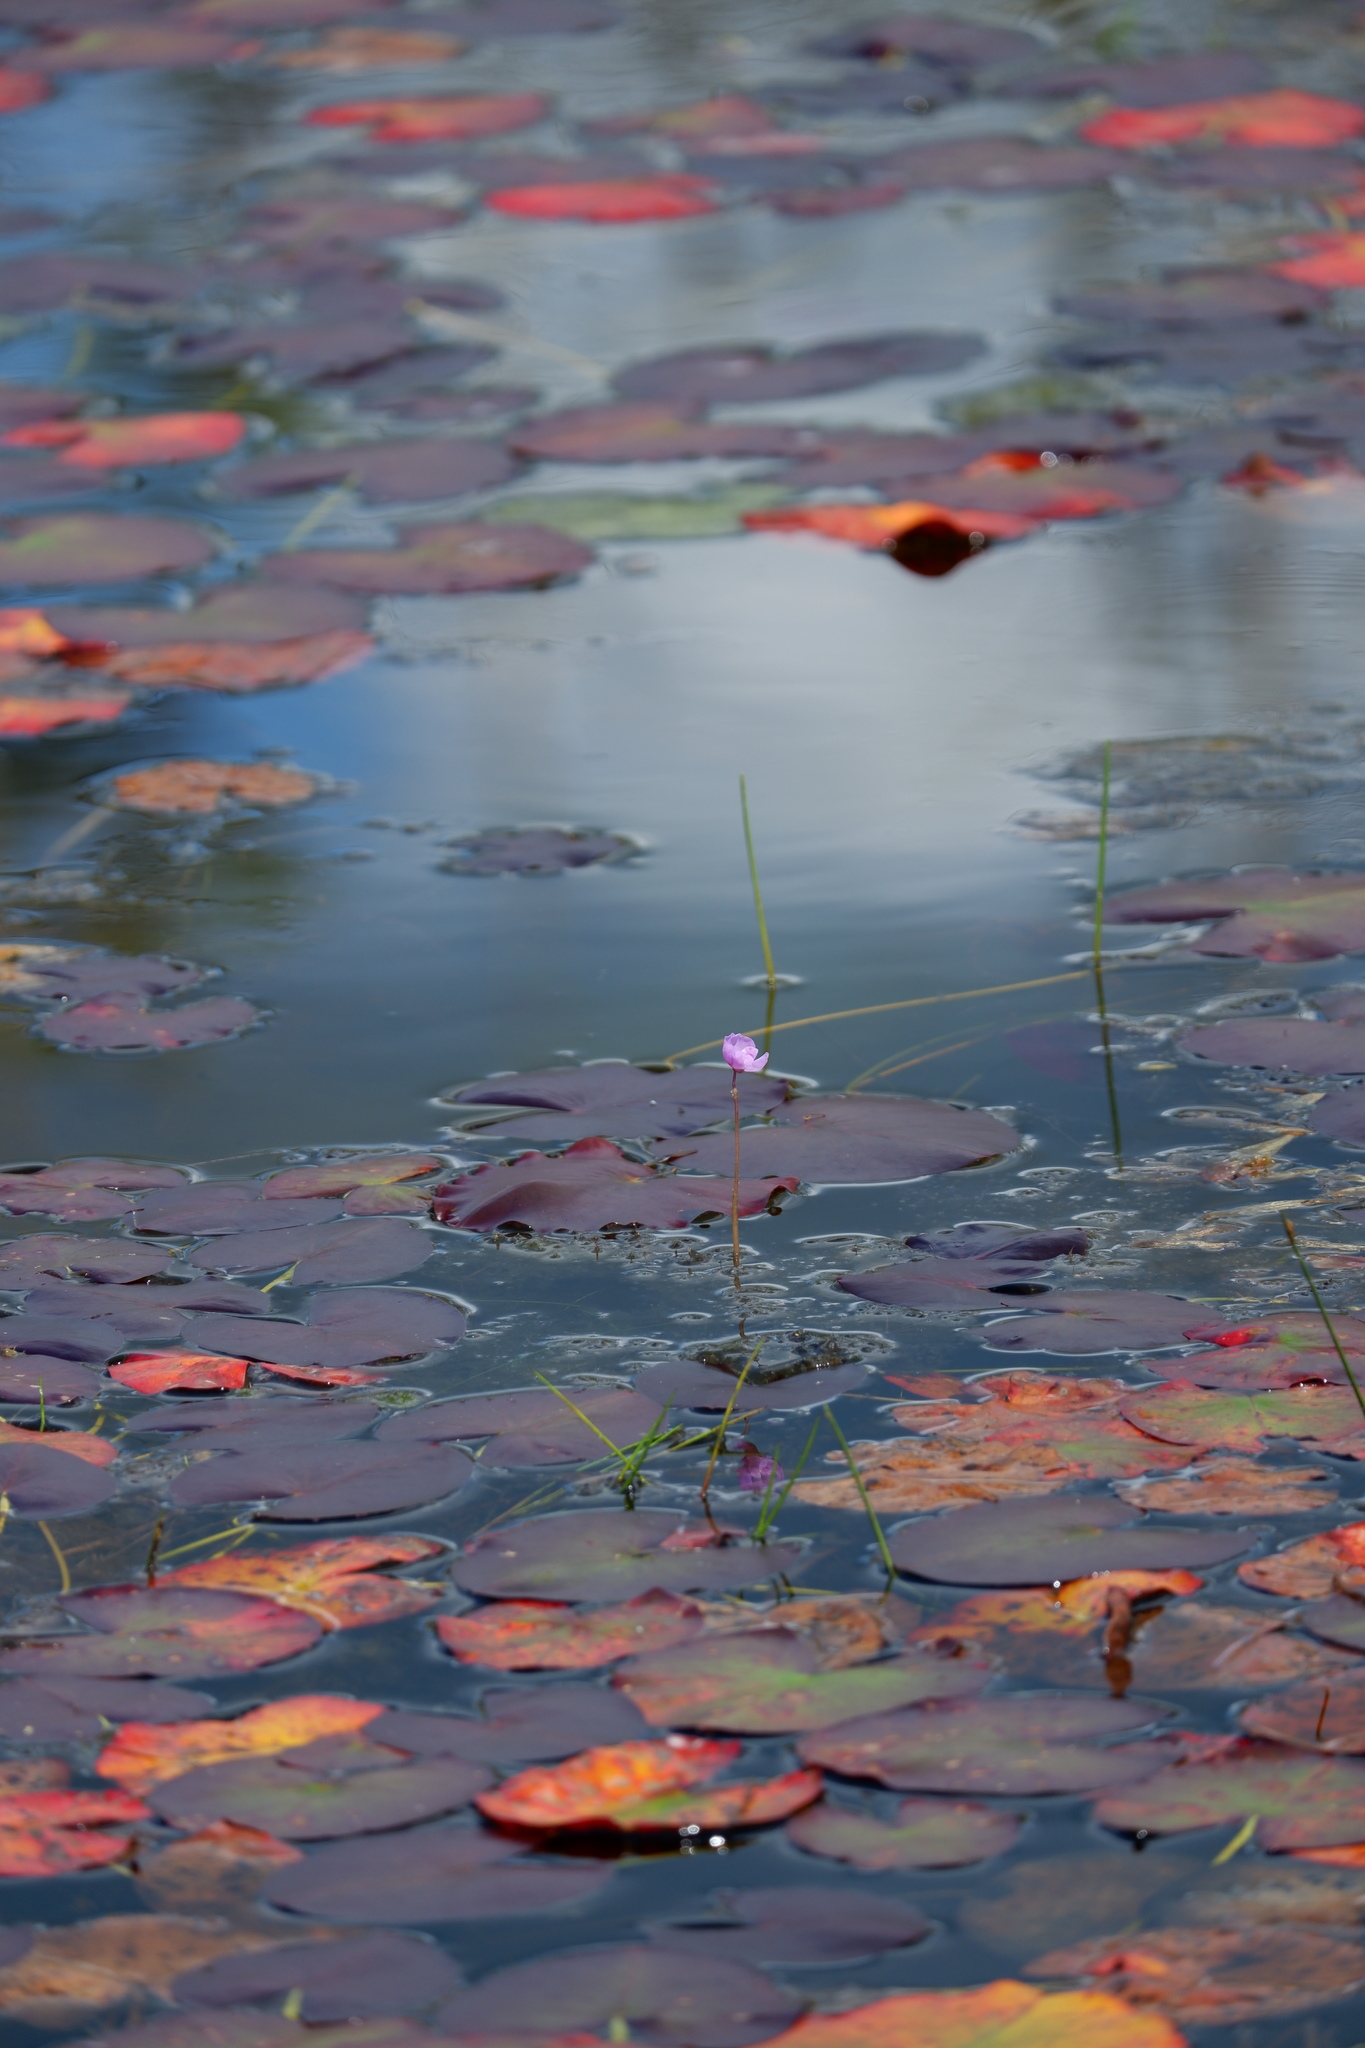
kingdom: Plantae
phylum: Tracheophyta
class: Magnoliopsida
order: Lamiales
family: Lentibulariaceae
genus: Utricularia
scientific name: Utricularia purpurea
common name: Eastern purple bladderwort
